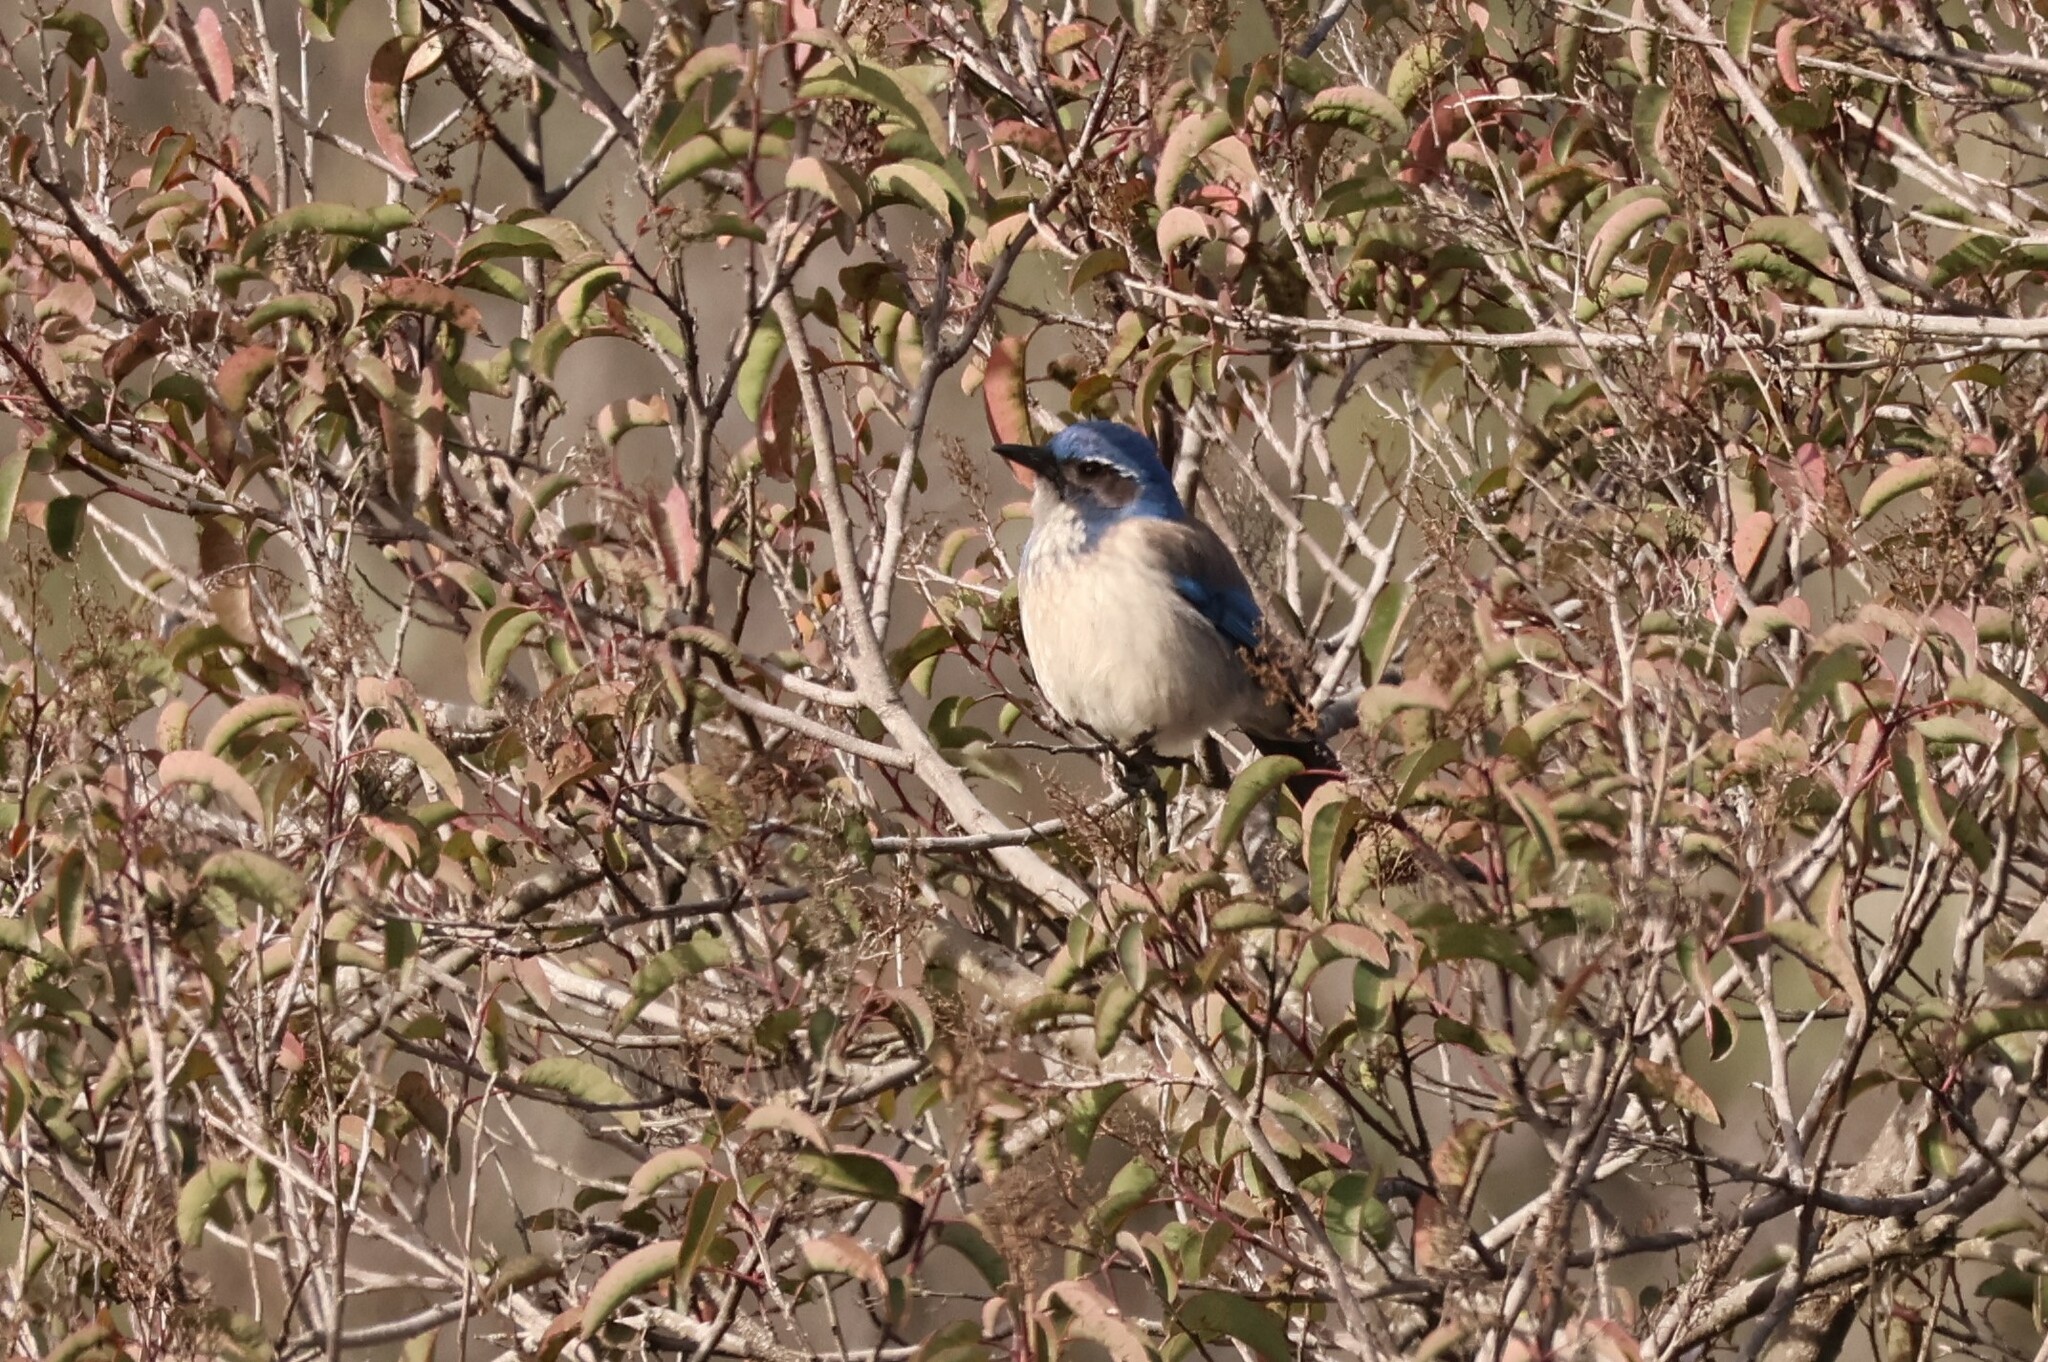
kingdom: Animalia
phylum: Chordata
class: Aves
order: Passeriformes
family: Corvidae
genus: Aphelocoma
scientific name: Aphelocoma californica
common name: California scrub-jay
